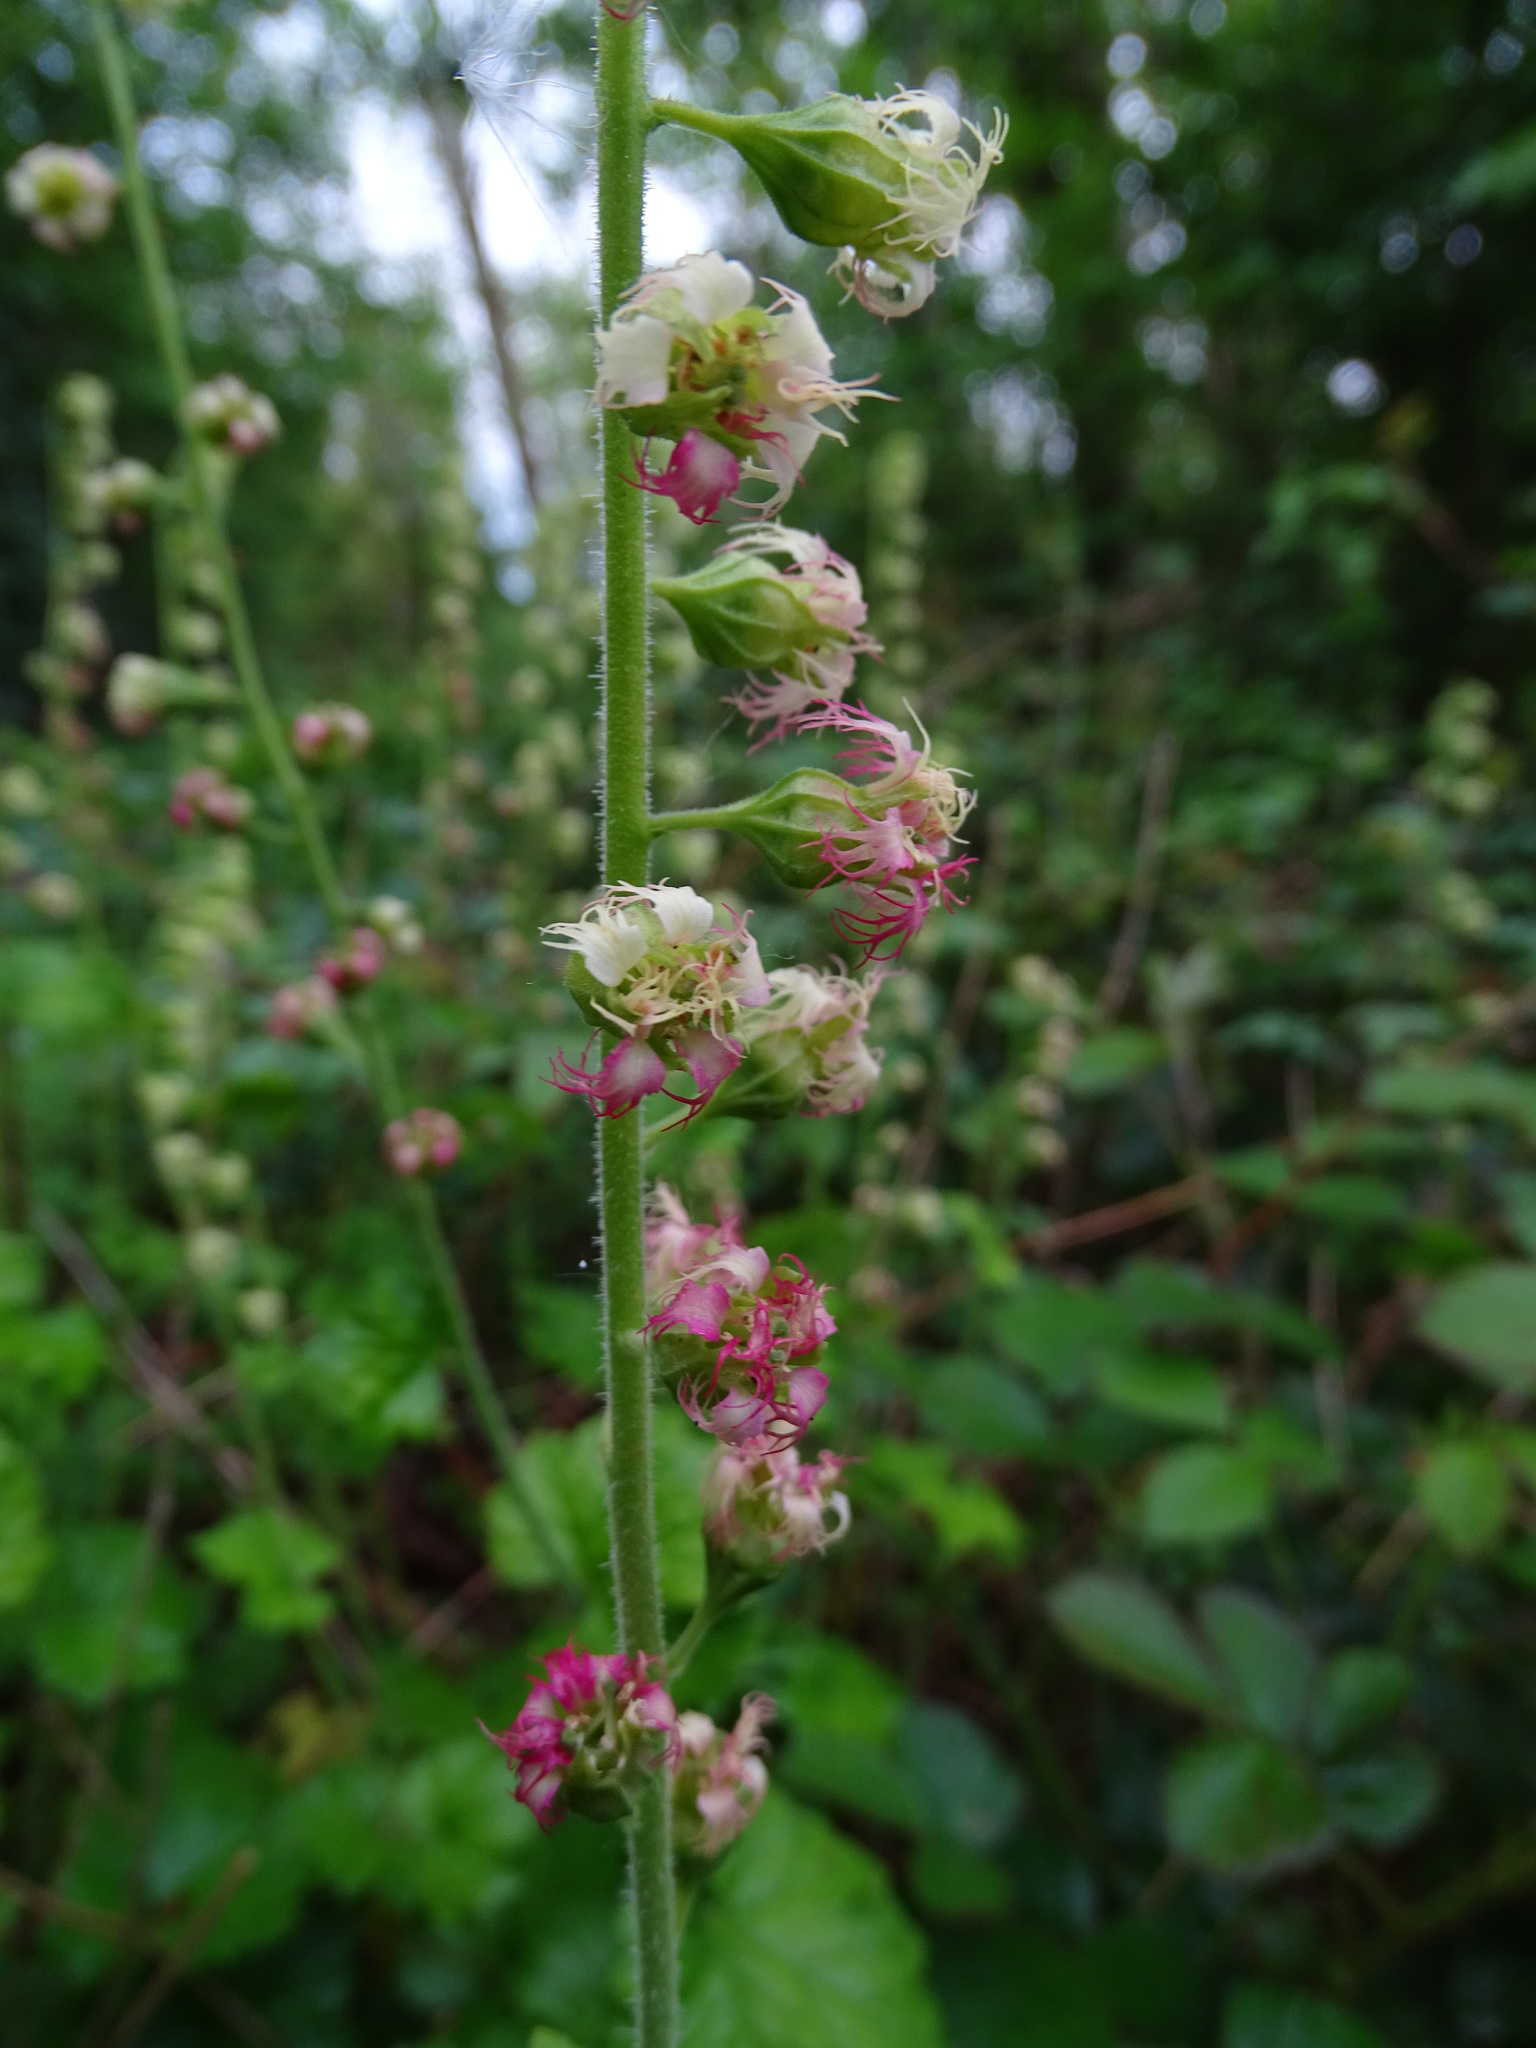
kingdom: Plantae
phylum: Tracheophyta
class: Magnoliopsida
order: Saxifragales
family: Saxifragaceae
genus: Tellima
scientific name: Tellima grandiflora
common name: Fringecups
